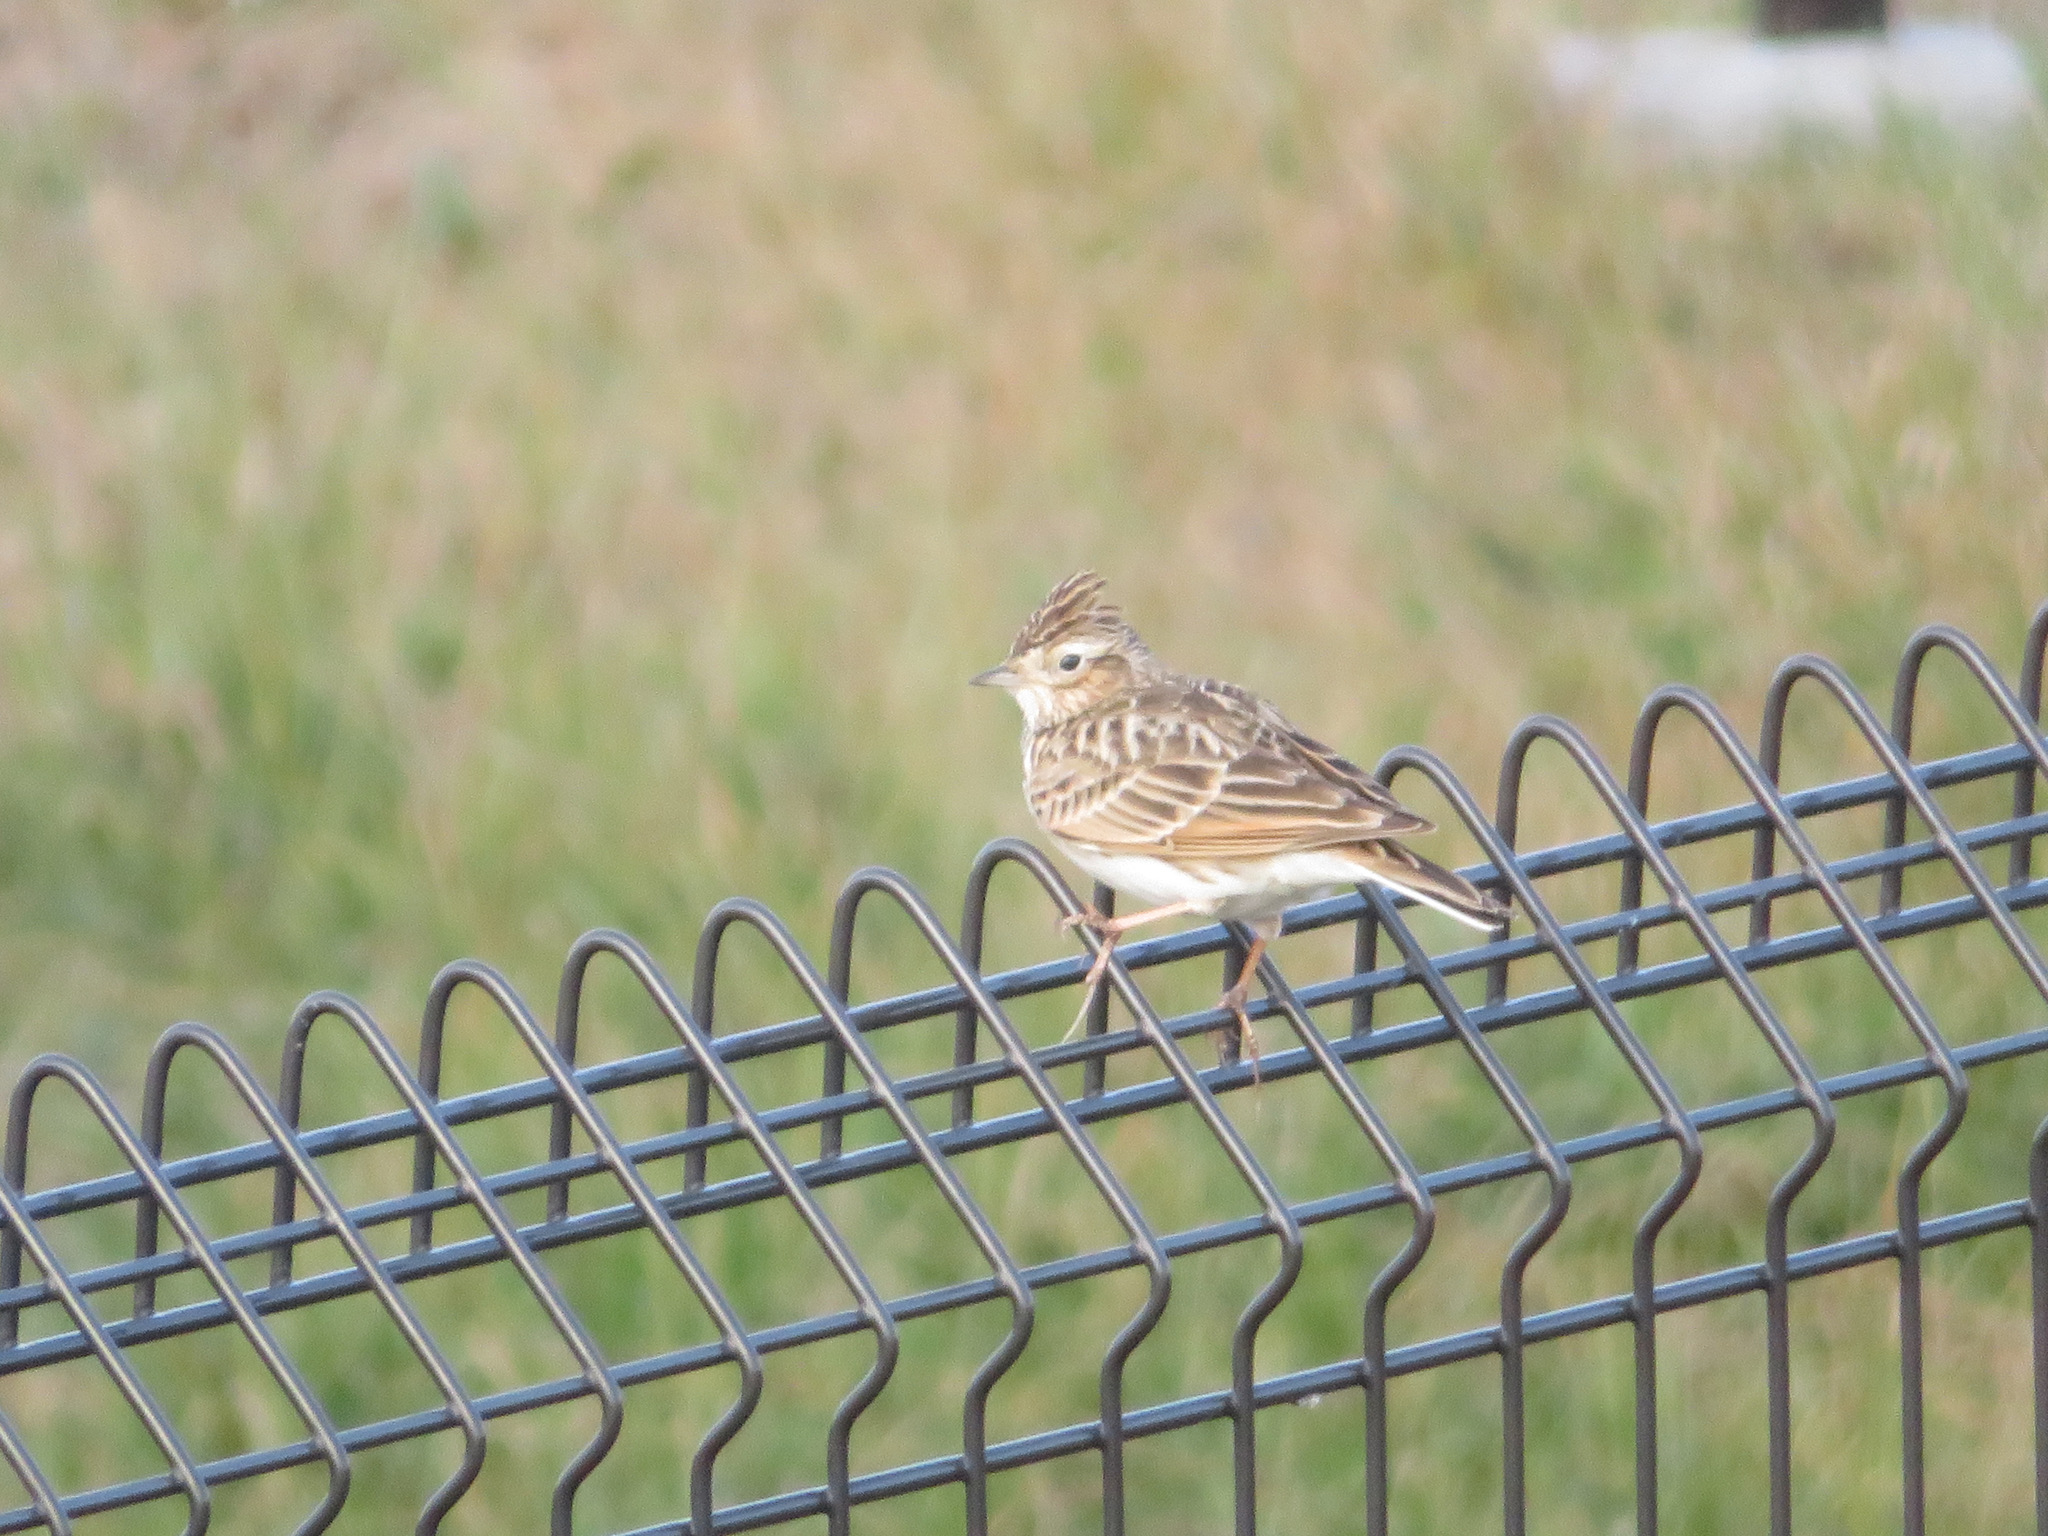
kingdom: Animalia
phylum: Chordata
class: Aves
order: Passeriformes
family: Alaudidae
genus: Alauda
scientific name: Alauda arvensis
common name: Eurasian skylark
